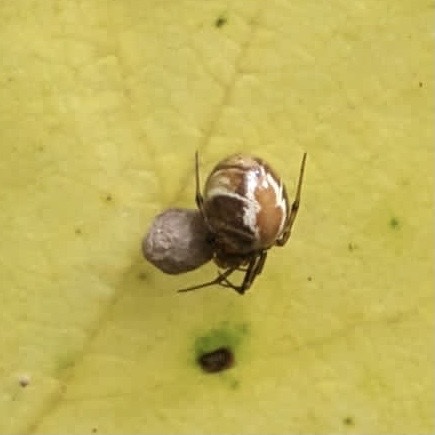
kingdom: Animalia
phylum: Arthropoda
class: Arachnida
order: Araneae
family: Theridiidae
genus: Nihonhimea
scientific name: Nihonhimea mundula
